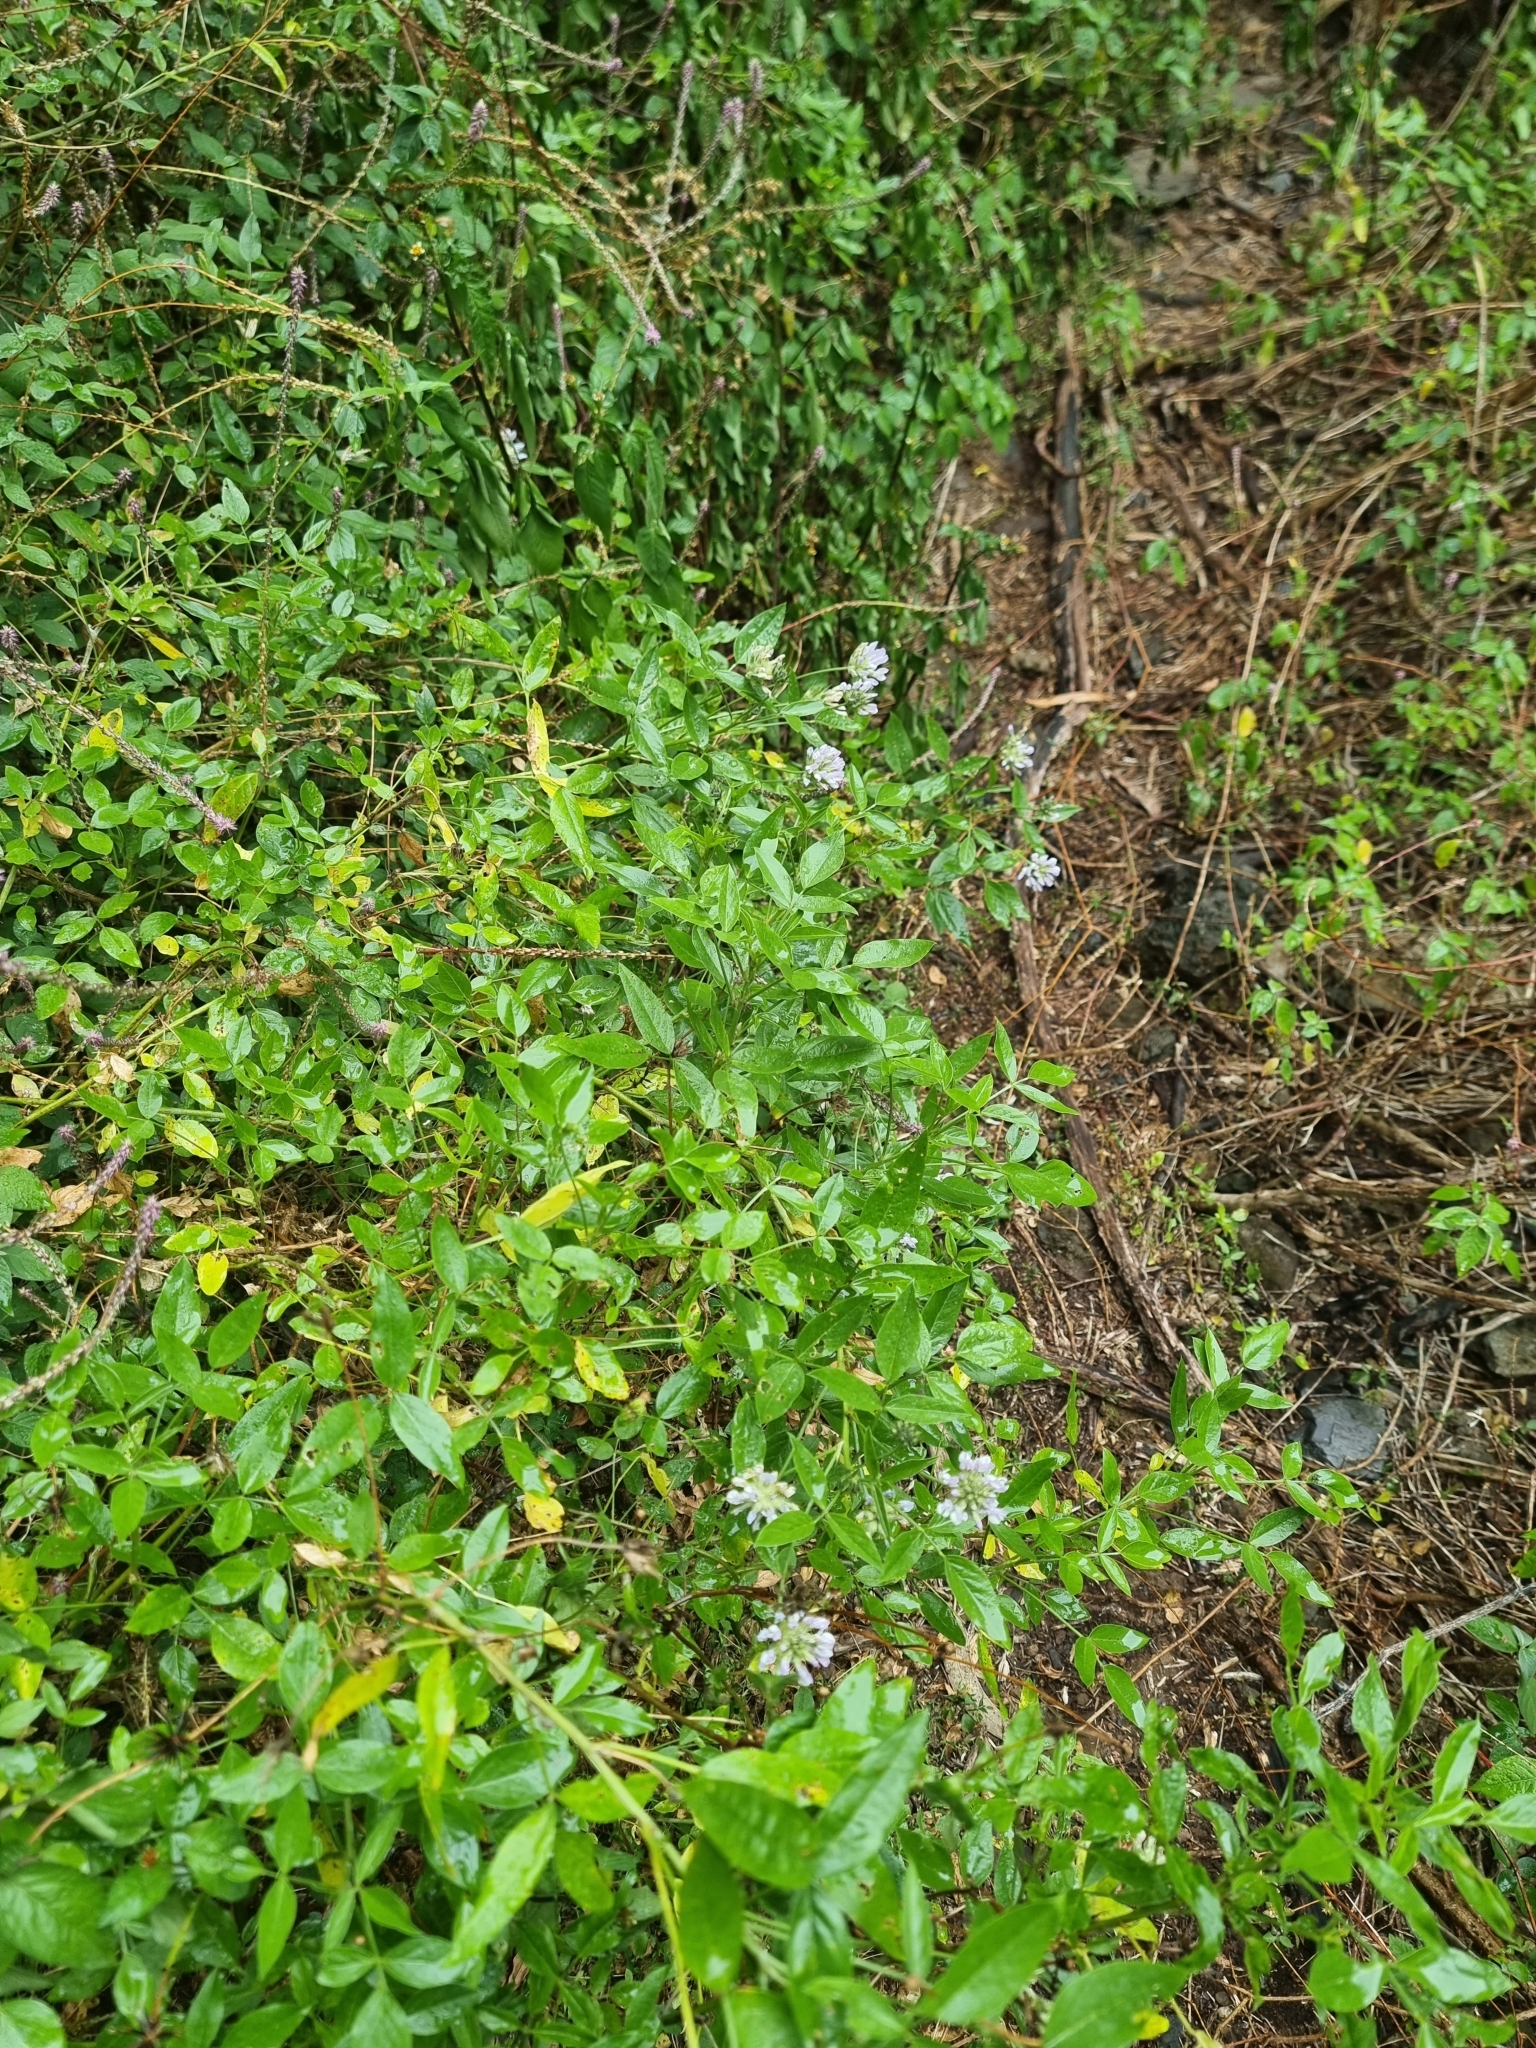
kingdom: Plantae
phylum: Tracheophyta
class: Magnoliopsida
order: Fabales
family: Fabaceae
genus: Bituminaria
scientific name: Bituminaria bituminosa
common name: Arabian pea
